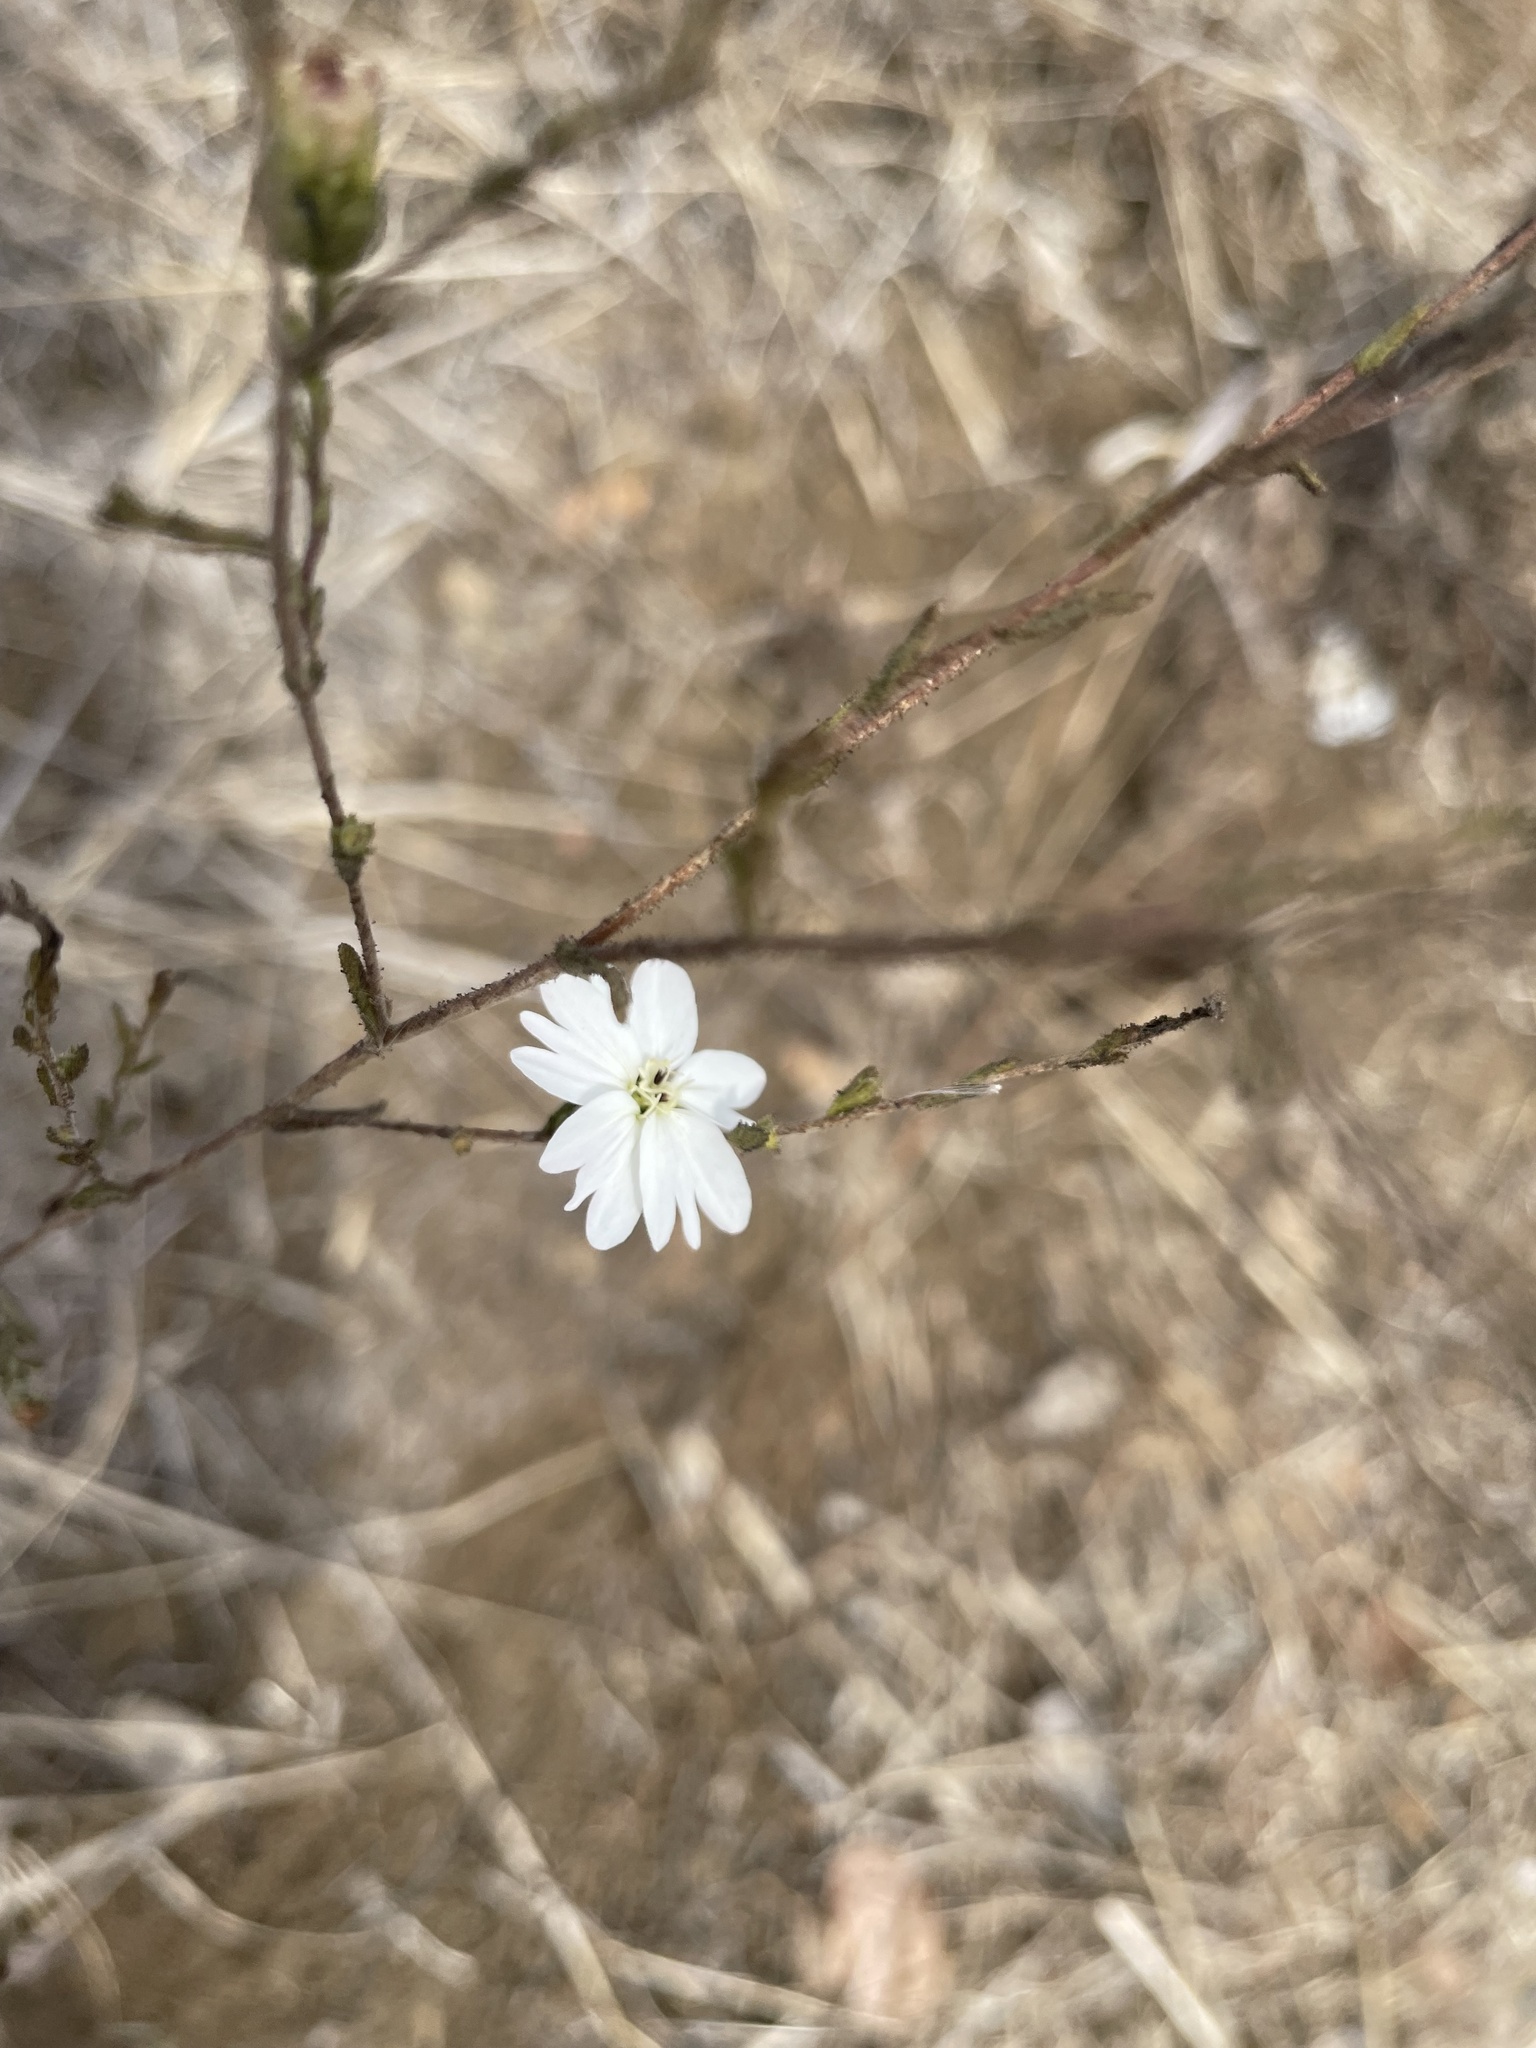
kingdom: Plantae
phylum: Tracheophyta
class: Magnoliopsida
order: Asterales
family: Asteraceae
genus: Hemizonia
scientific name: Hemizonia congesta
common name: Hayfield tarweed
